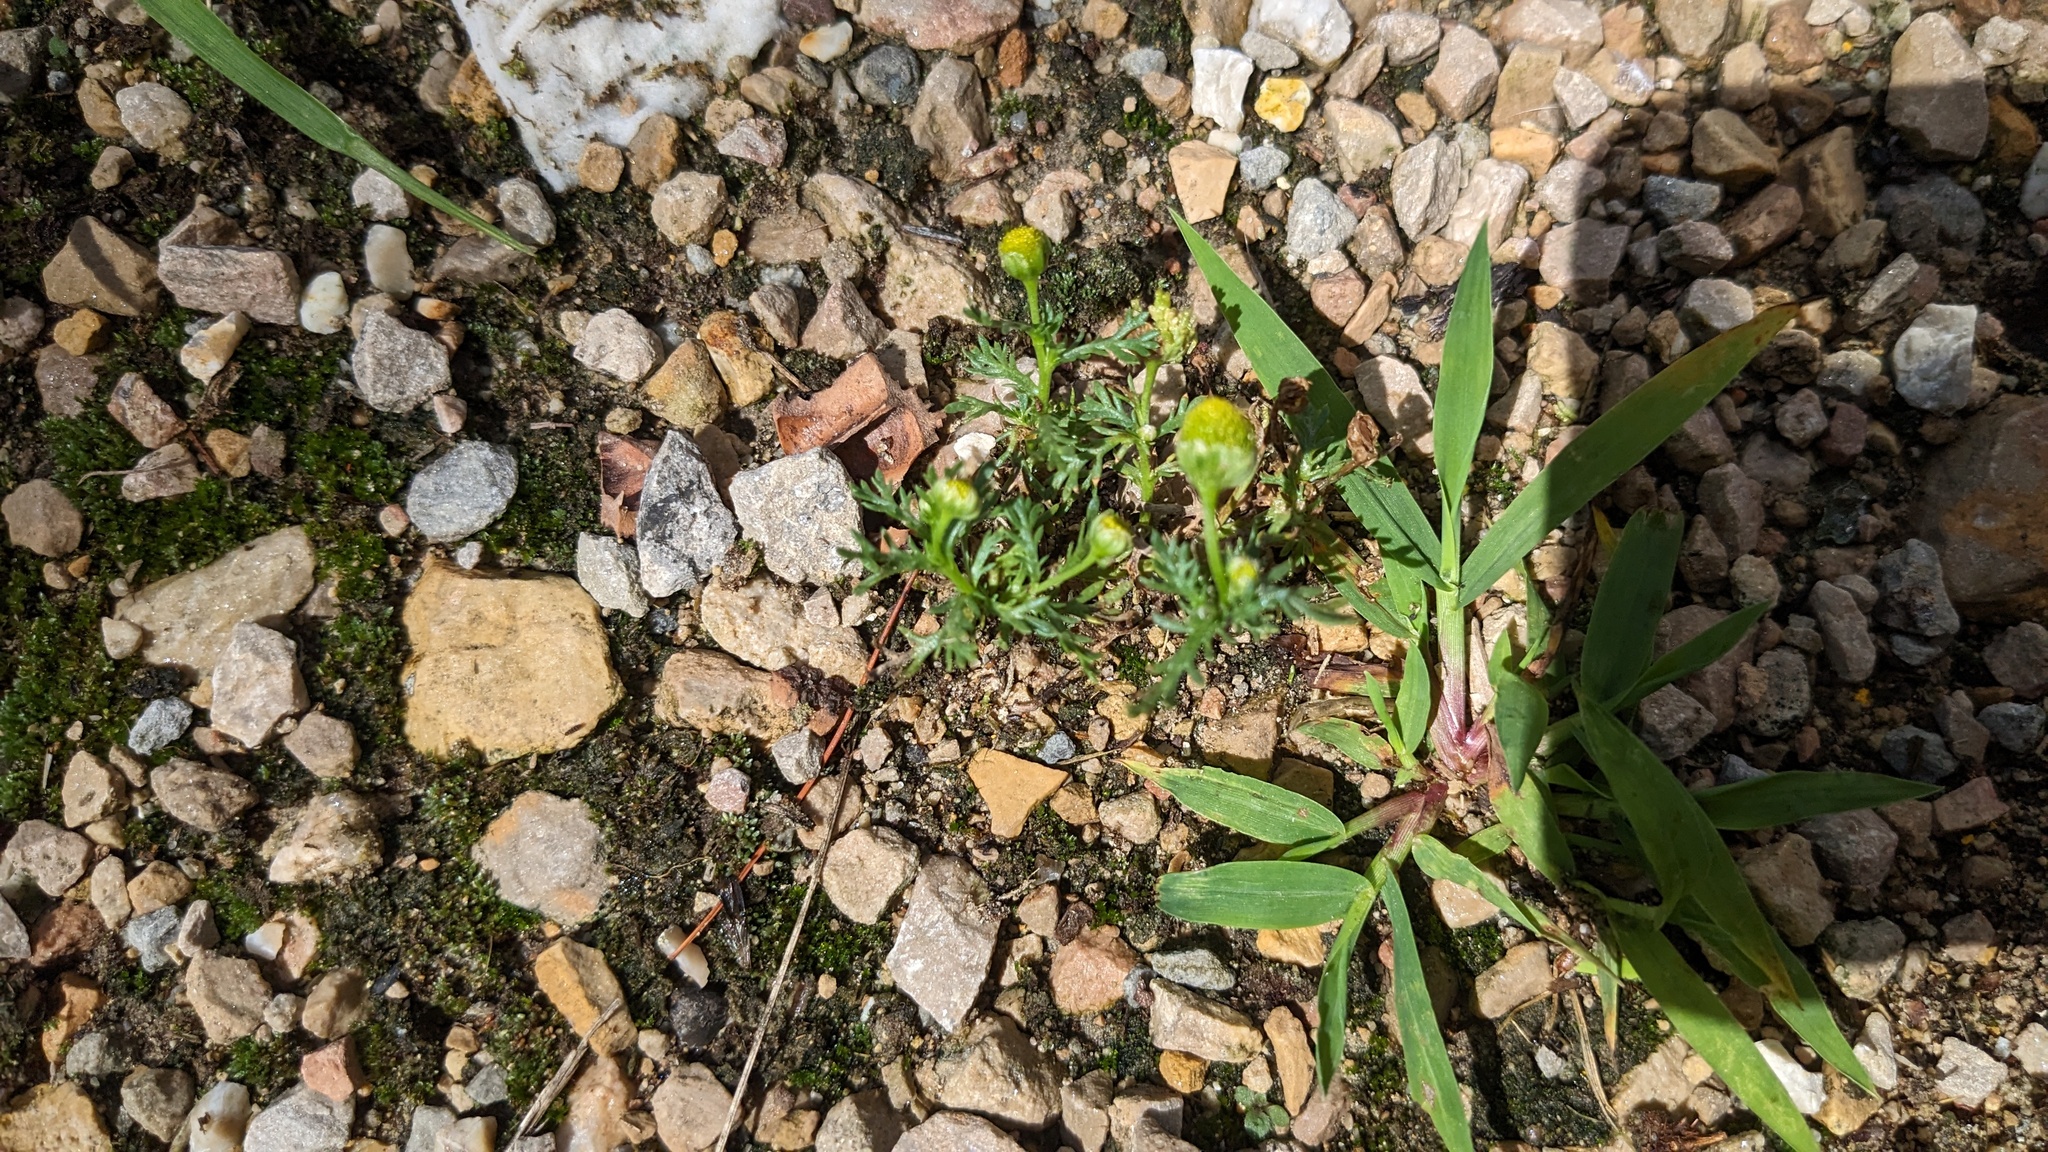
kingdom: Plantae
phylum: Tracheophyta
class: Magnoliopsida
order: Asterales
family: Asteraceae
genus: Matricaria
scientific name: Matricaria discoidea
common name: Disc mayweed
